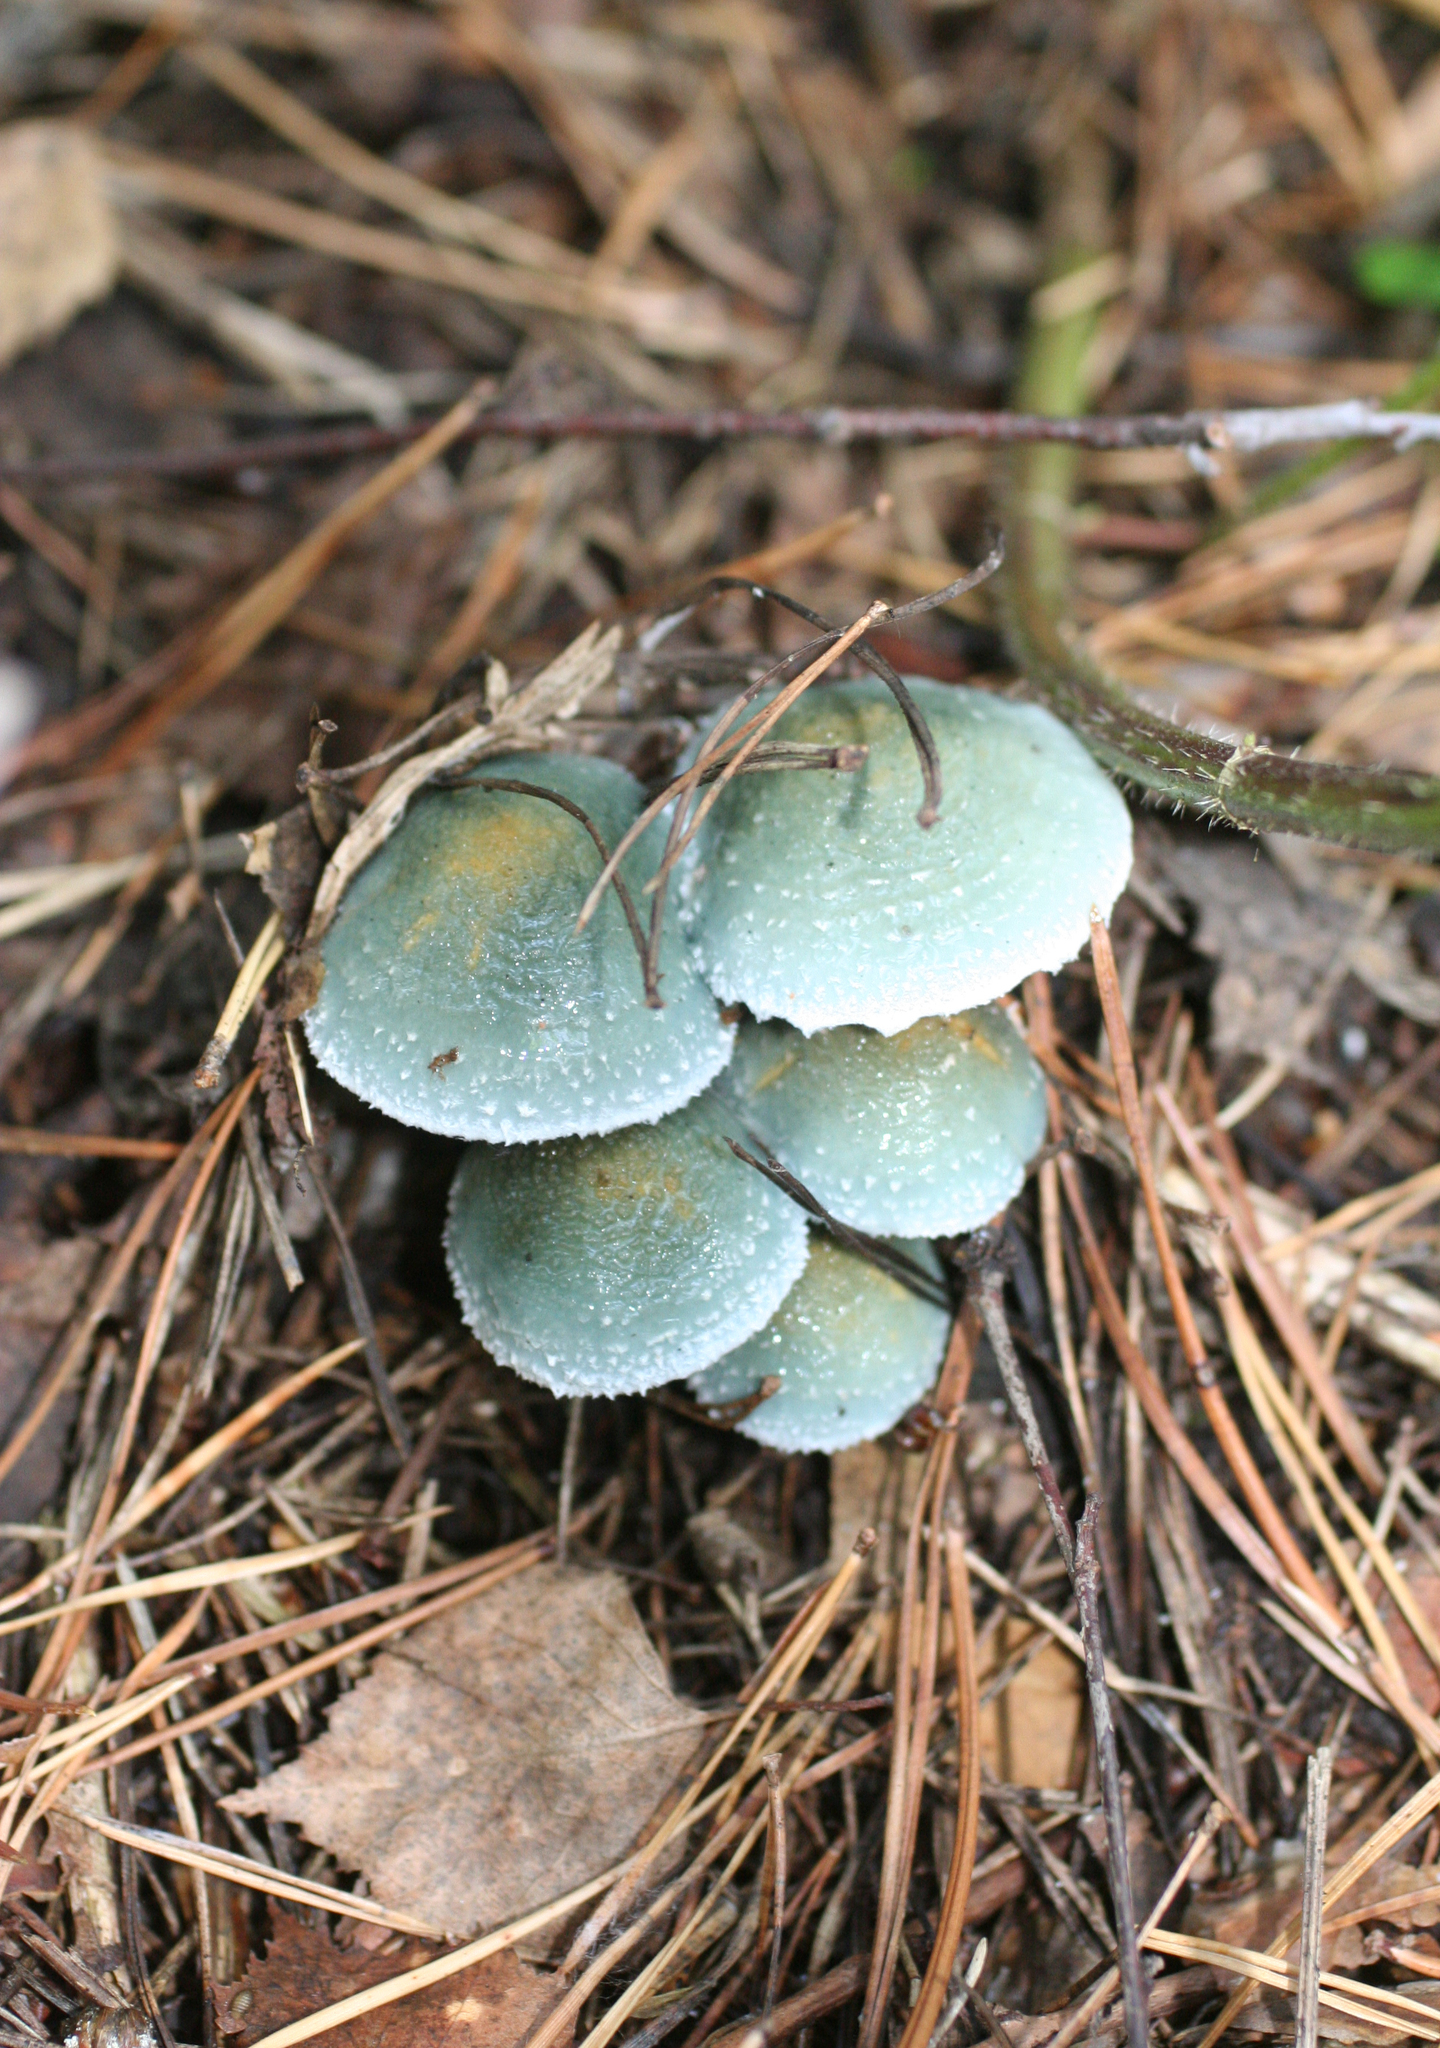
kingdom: Fungi
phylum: Basidiomycota
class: Agaricomycetes
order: Agaricales
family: Strophariaceae
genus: Stropharia
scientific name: Stropharia aeruginosa
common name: Verdigris roundhead
